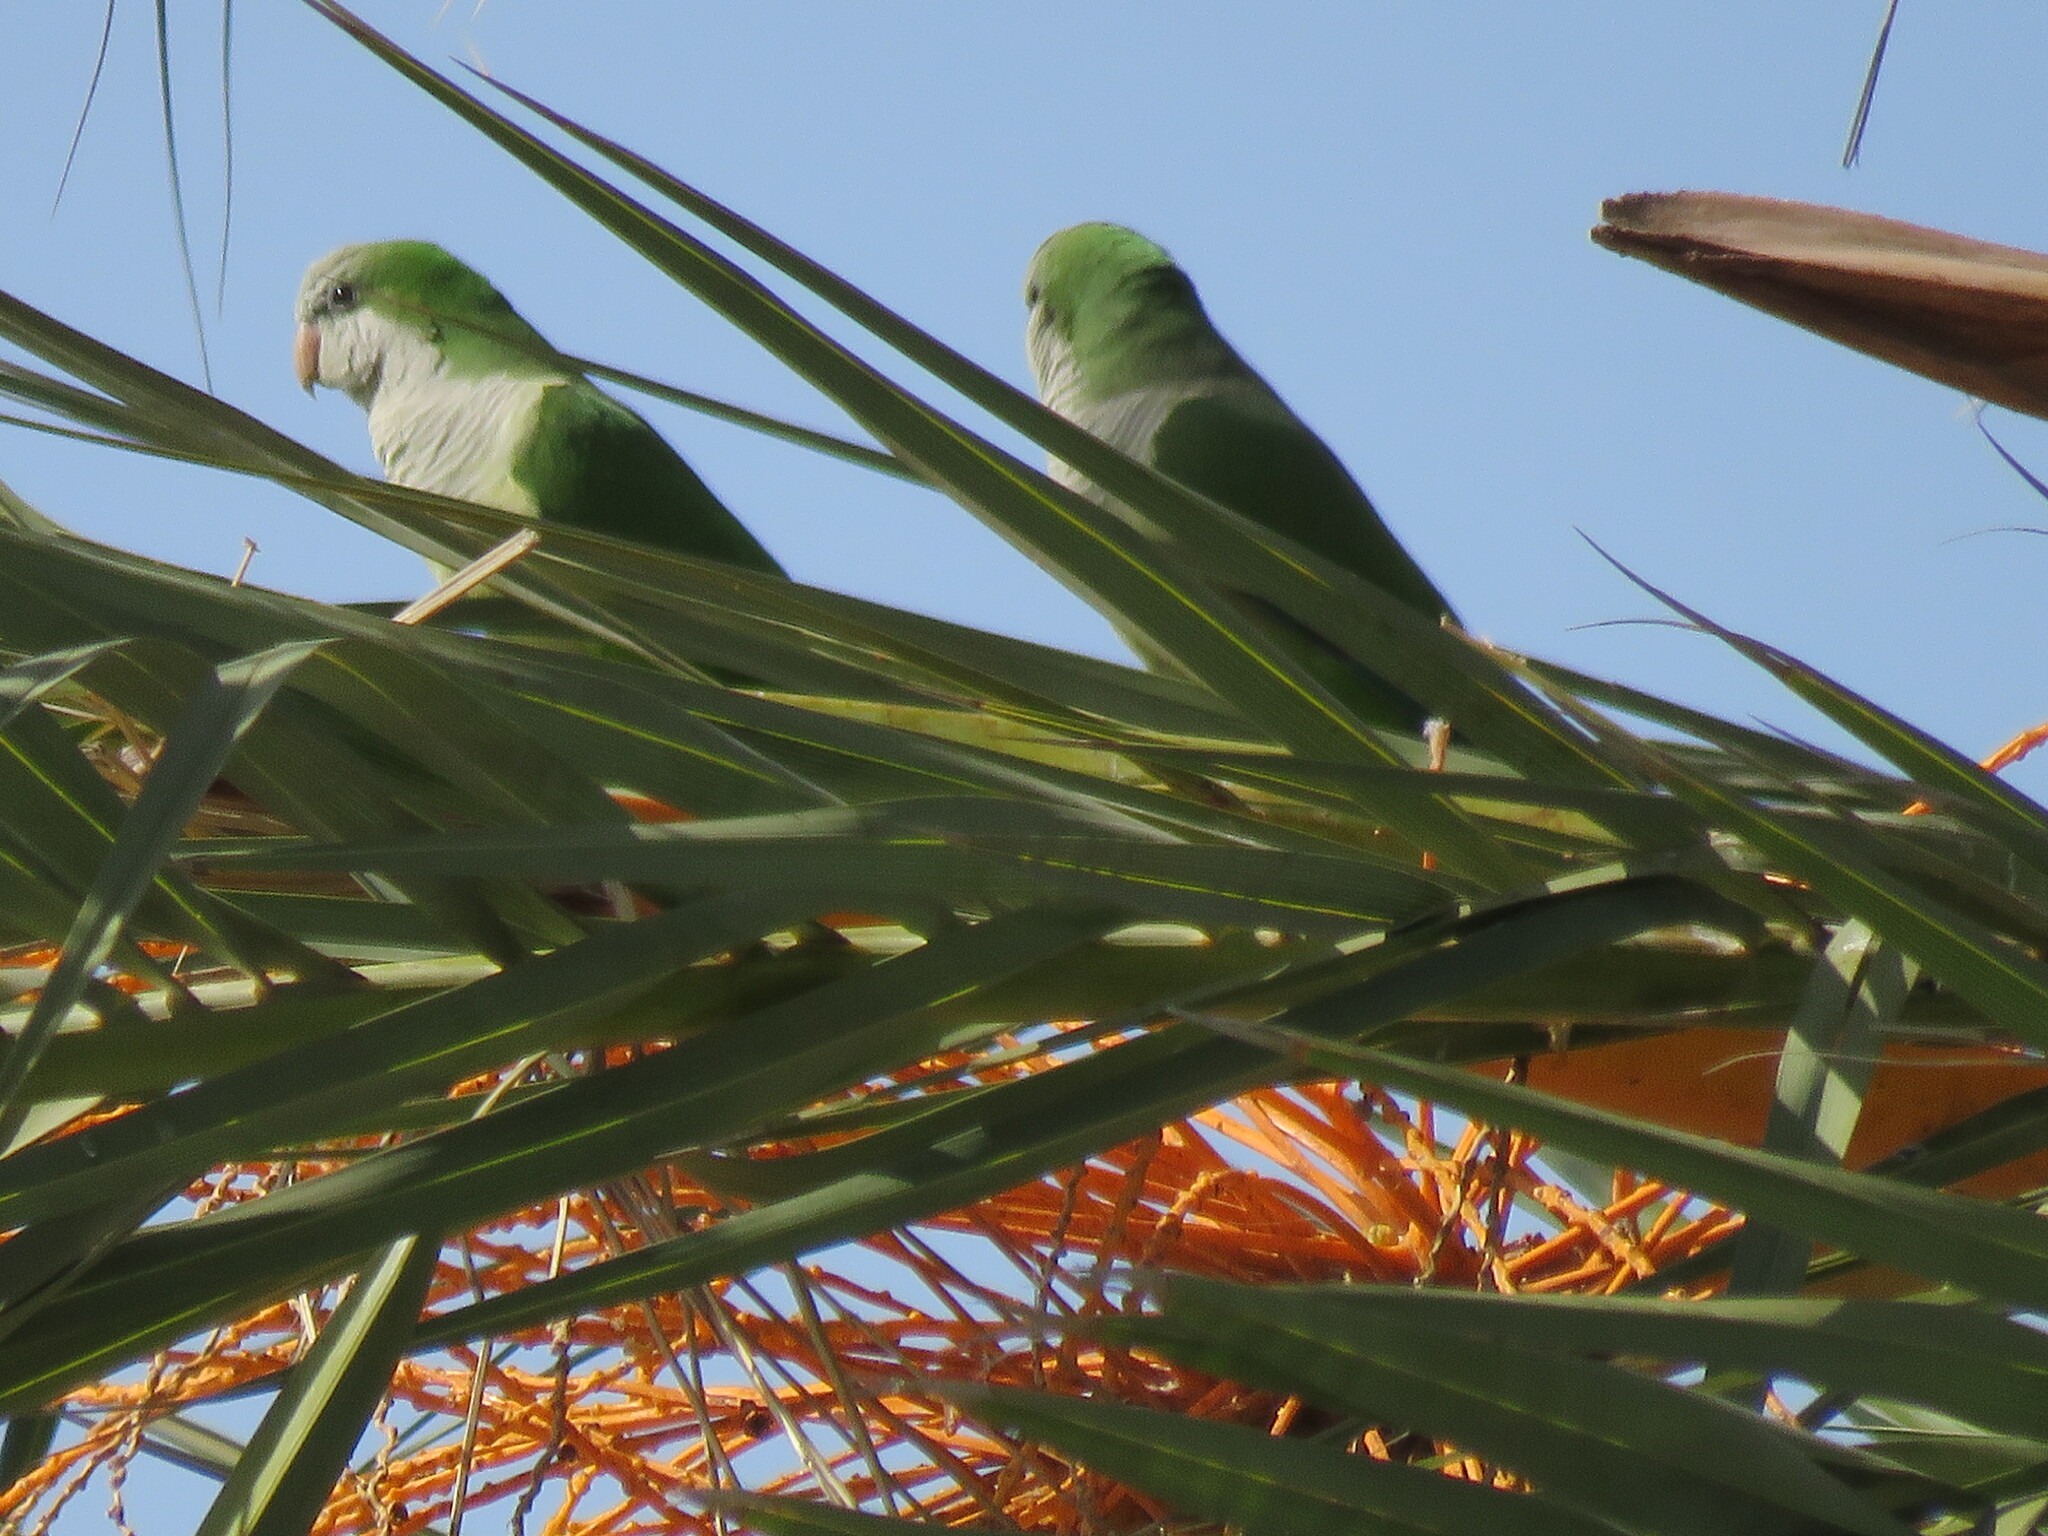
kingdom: Animalia
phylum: Chordata
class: Aves
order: Psittaciformes
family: Psittacidae
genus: Myiopsitta
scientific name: Myiopsitta monachus
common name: Monk parakeet
